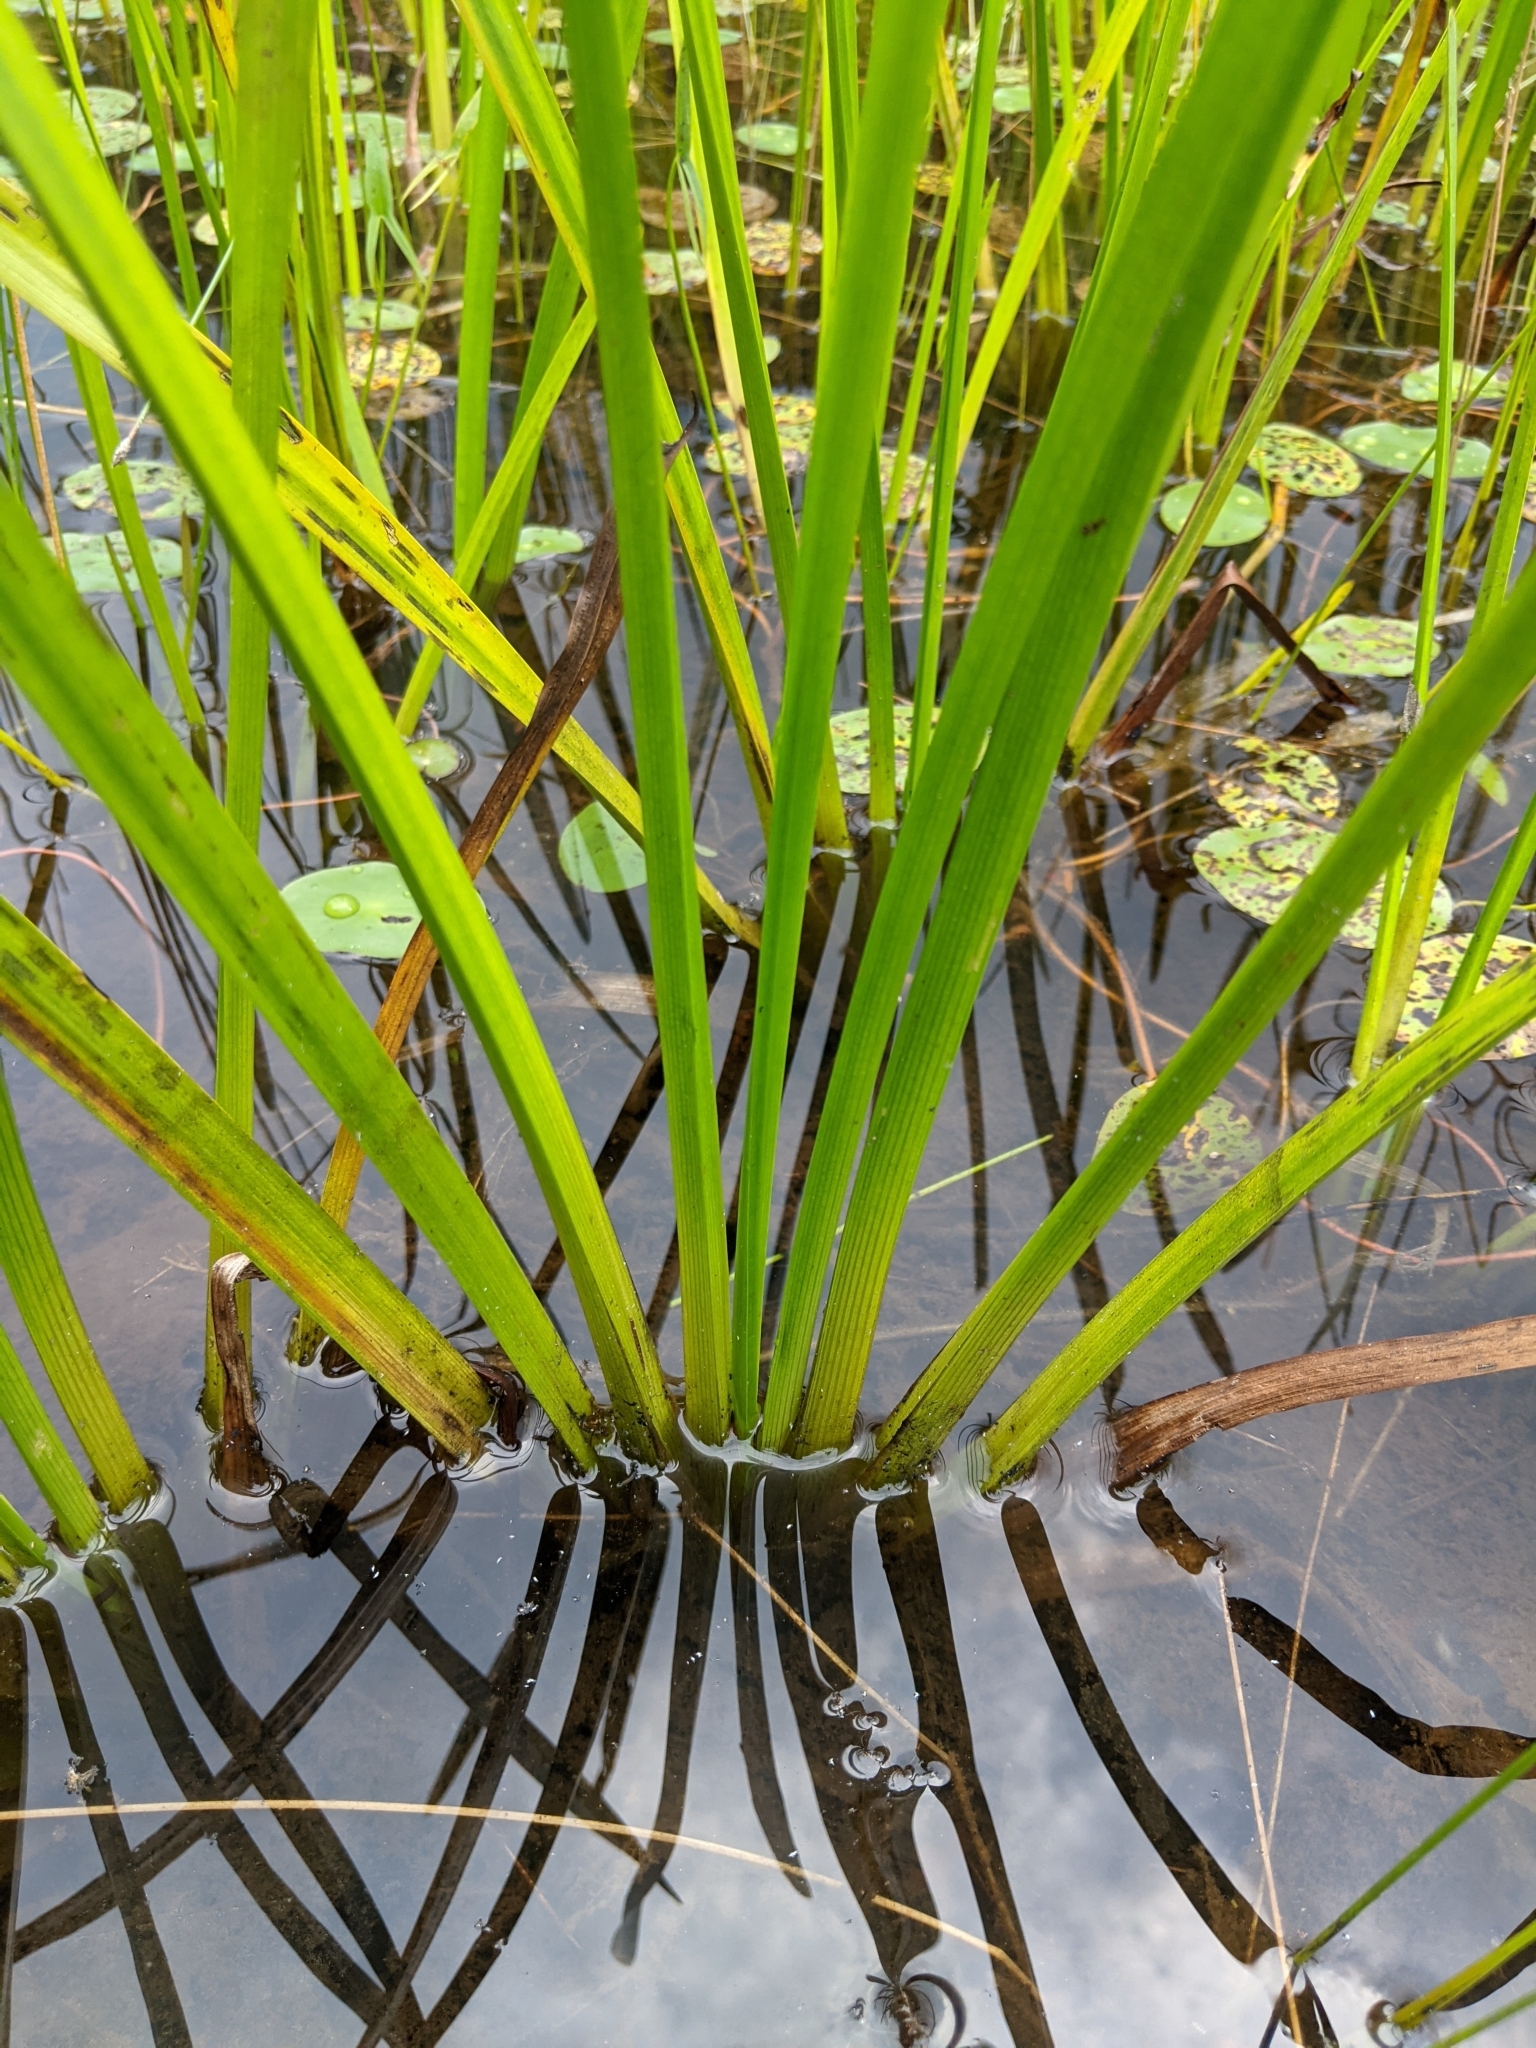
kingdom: Plantae
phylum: Tracheophyta
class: Liliopsida
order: Acorales
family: Acoraceae
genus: Acorus
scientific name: Acorus calamus
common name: Sweet-flag
